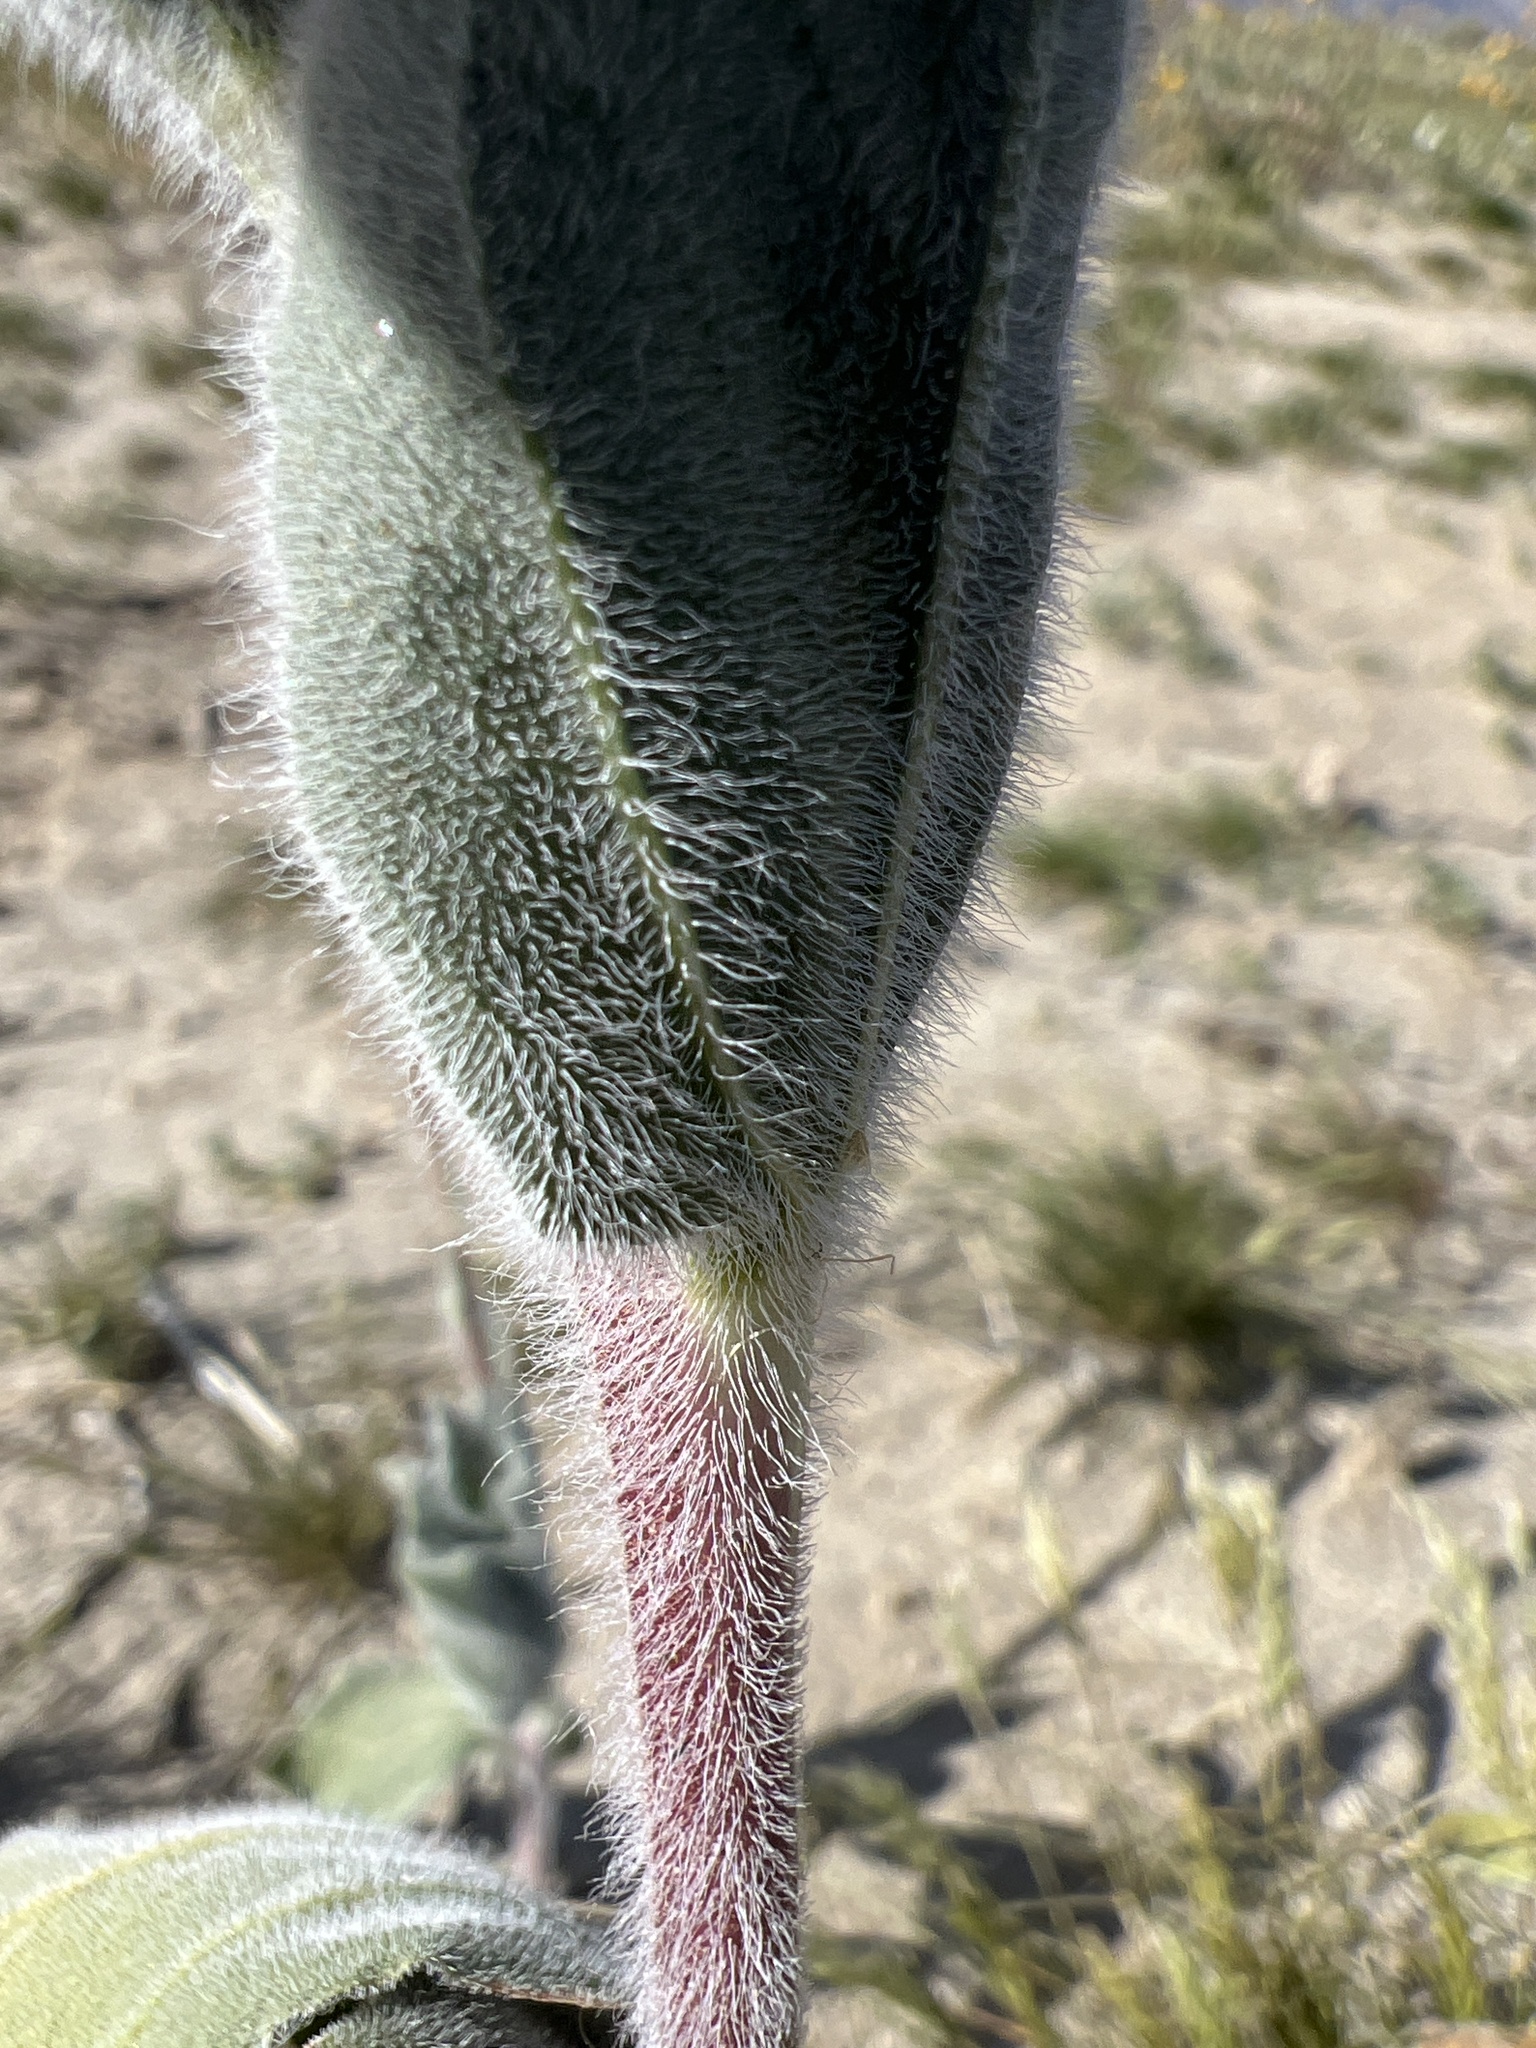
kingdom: Plantae
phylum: Tracheophyta
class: Magnoliopsida
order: Asterales
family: Asteraceae
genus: Geraea
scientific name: Geraea canescens
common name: Desert-gold
